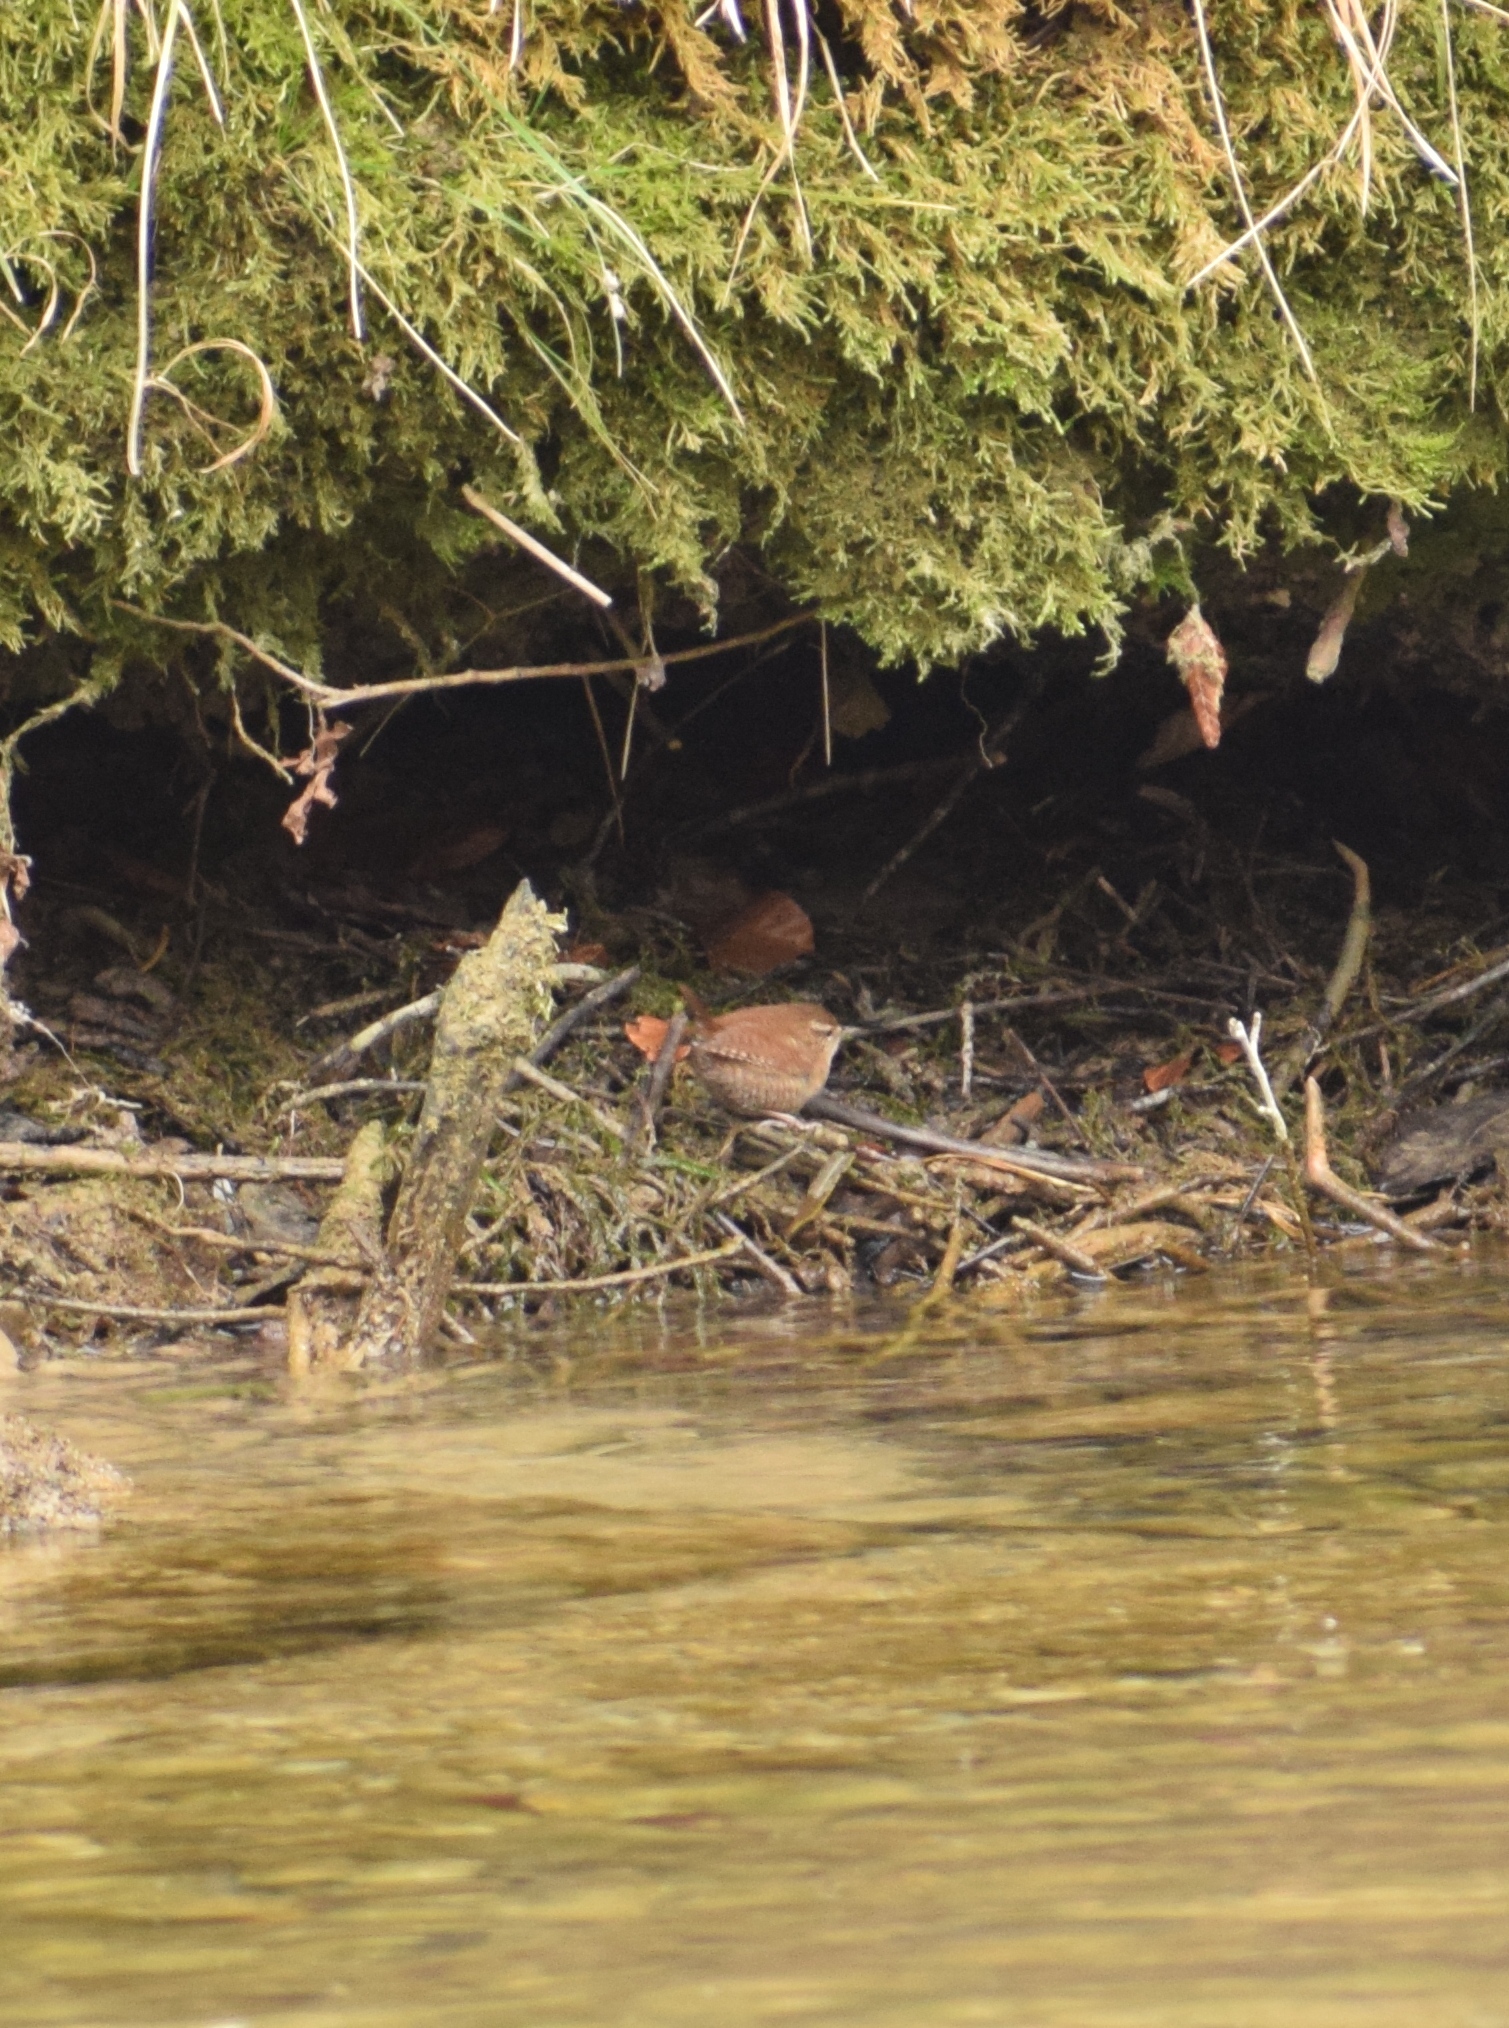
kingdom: Animalia
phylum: Chordata
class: Aves
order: Passeriformes
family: Troglodytidae
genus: Troglodytes
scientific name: Troglodytes troglodytes
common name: Eurasian wren
